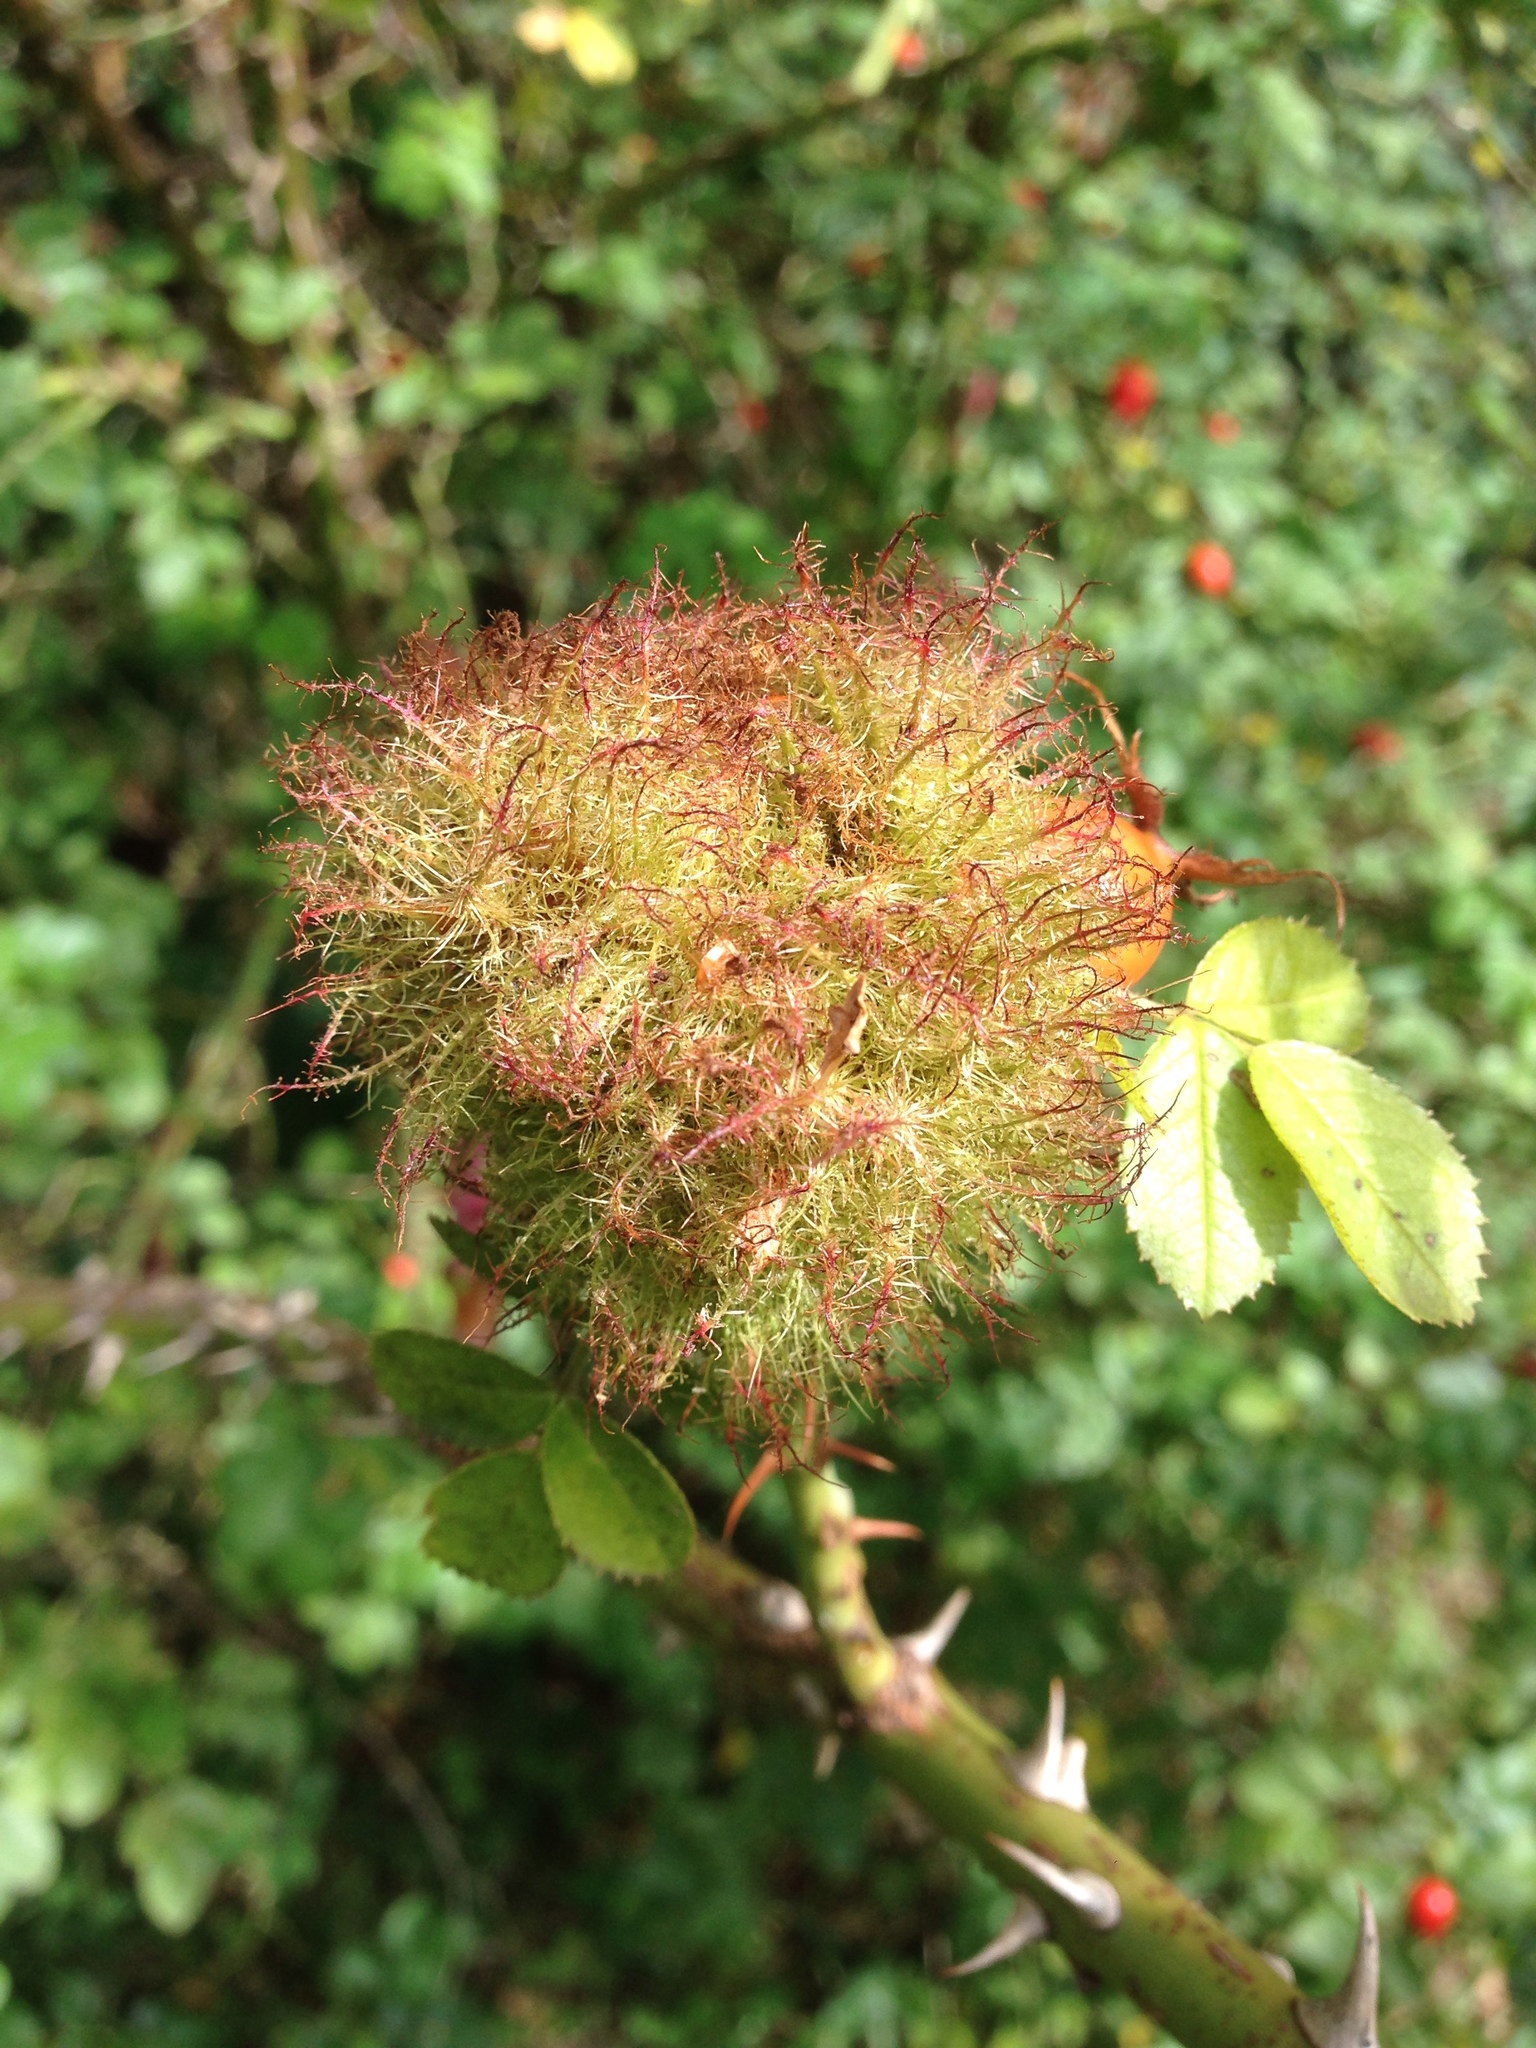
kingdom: Animalia
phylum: Arthropoda
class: Insecta
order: Hymenoptera
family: Cynipidae
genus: Diplolepis
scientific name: Diplolepis rosae
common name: Bedeguar gall
